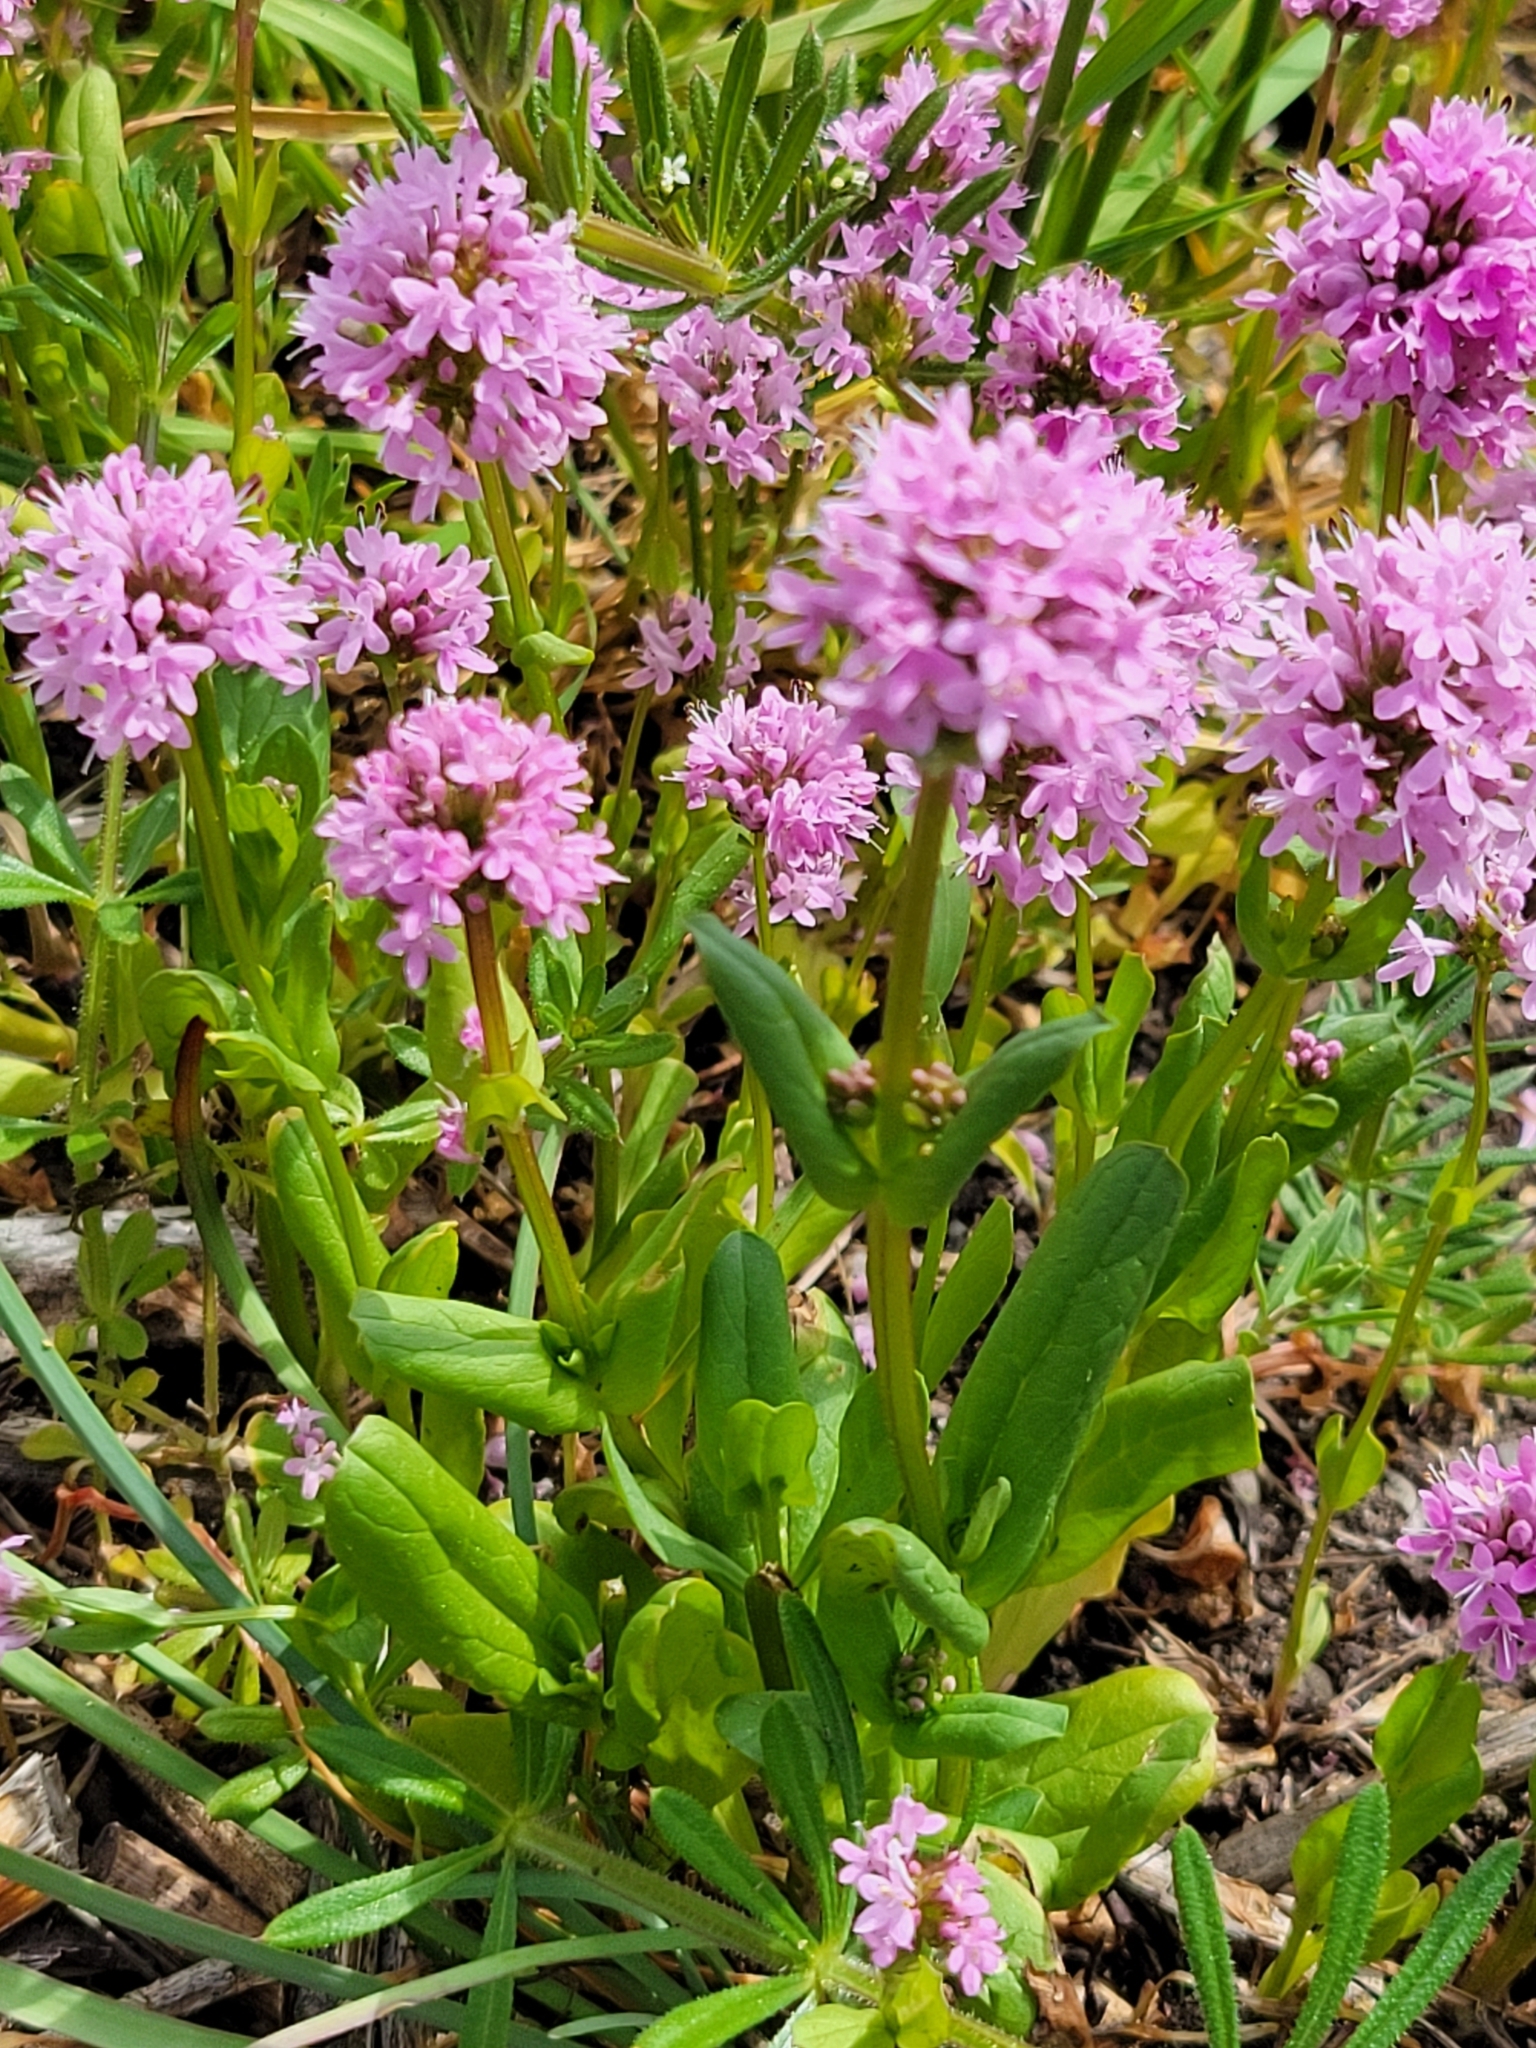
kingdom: Plantae
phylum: Tracheophyta
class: Magnoliopsida
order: Dipsacales
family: Caprifoliaceae
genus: Plectritis
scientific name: Plectritis congesta
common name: Pink plectritis
